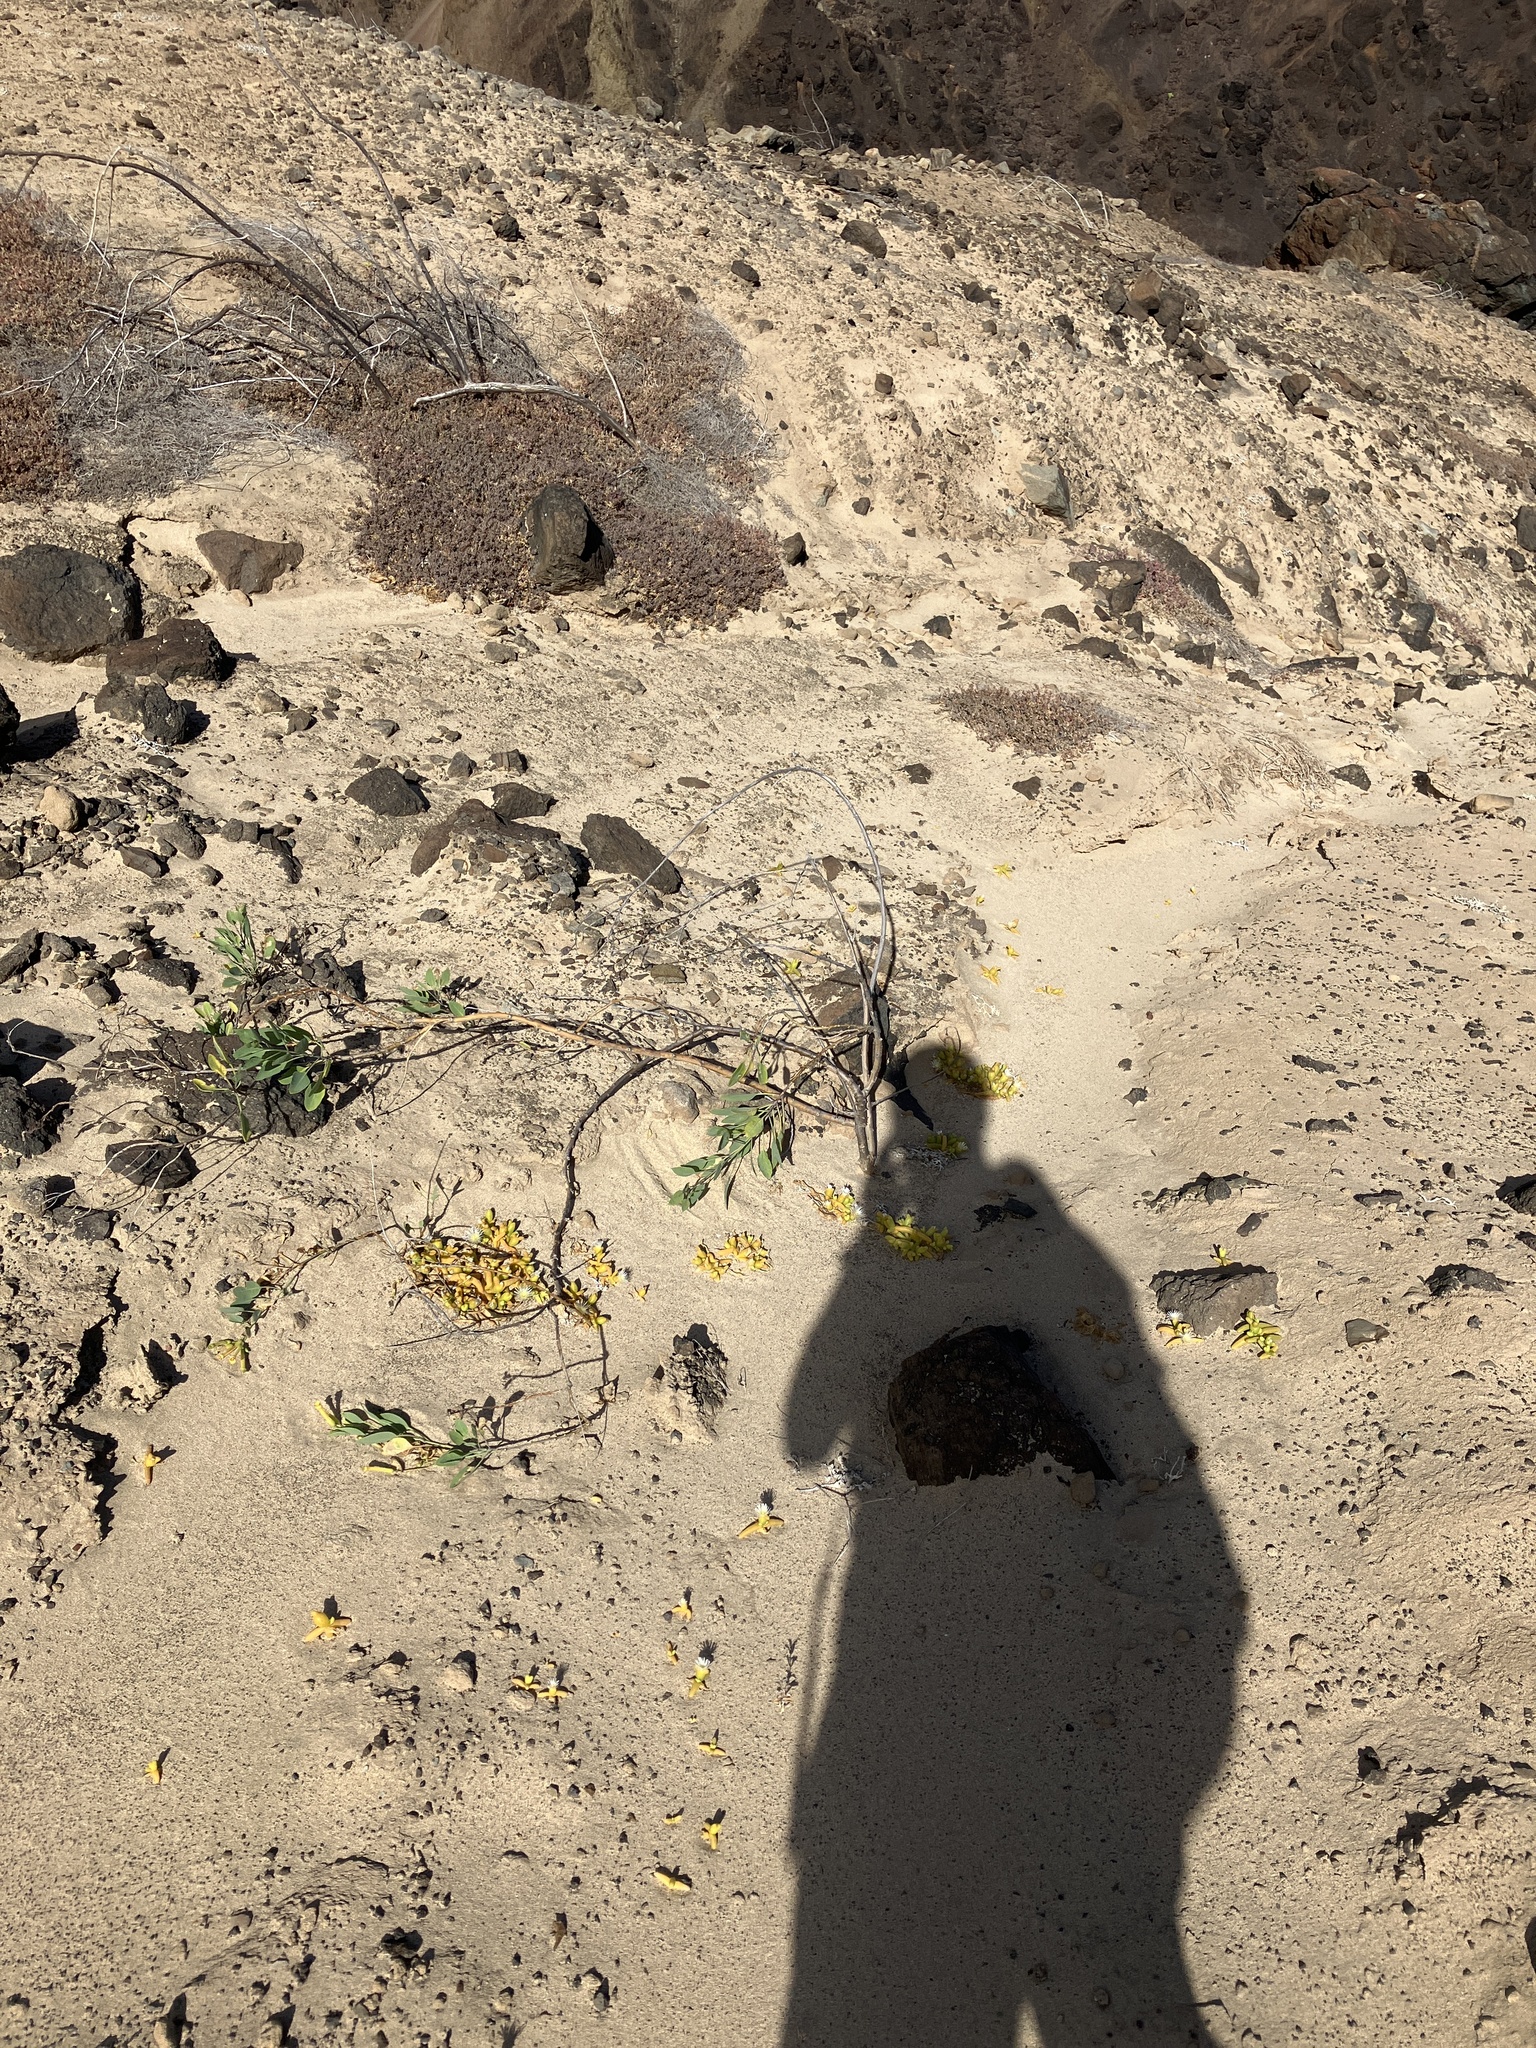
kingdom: Plantae
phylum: Tracheophyta
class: Magnoliopsida
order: Solanales
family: Solanaceae
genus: Nicotiana
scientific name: Nicotiana glauca
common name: Tree tobacco
